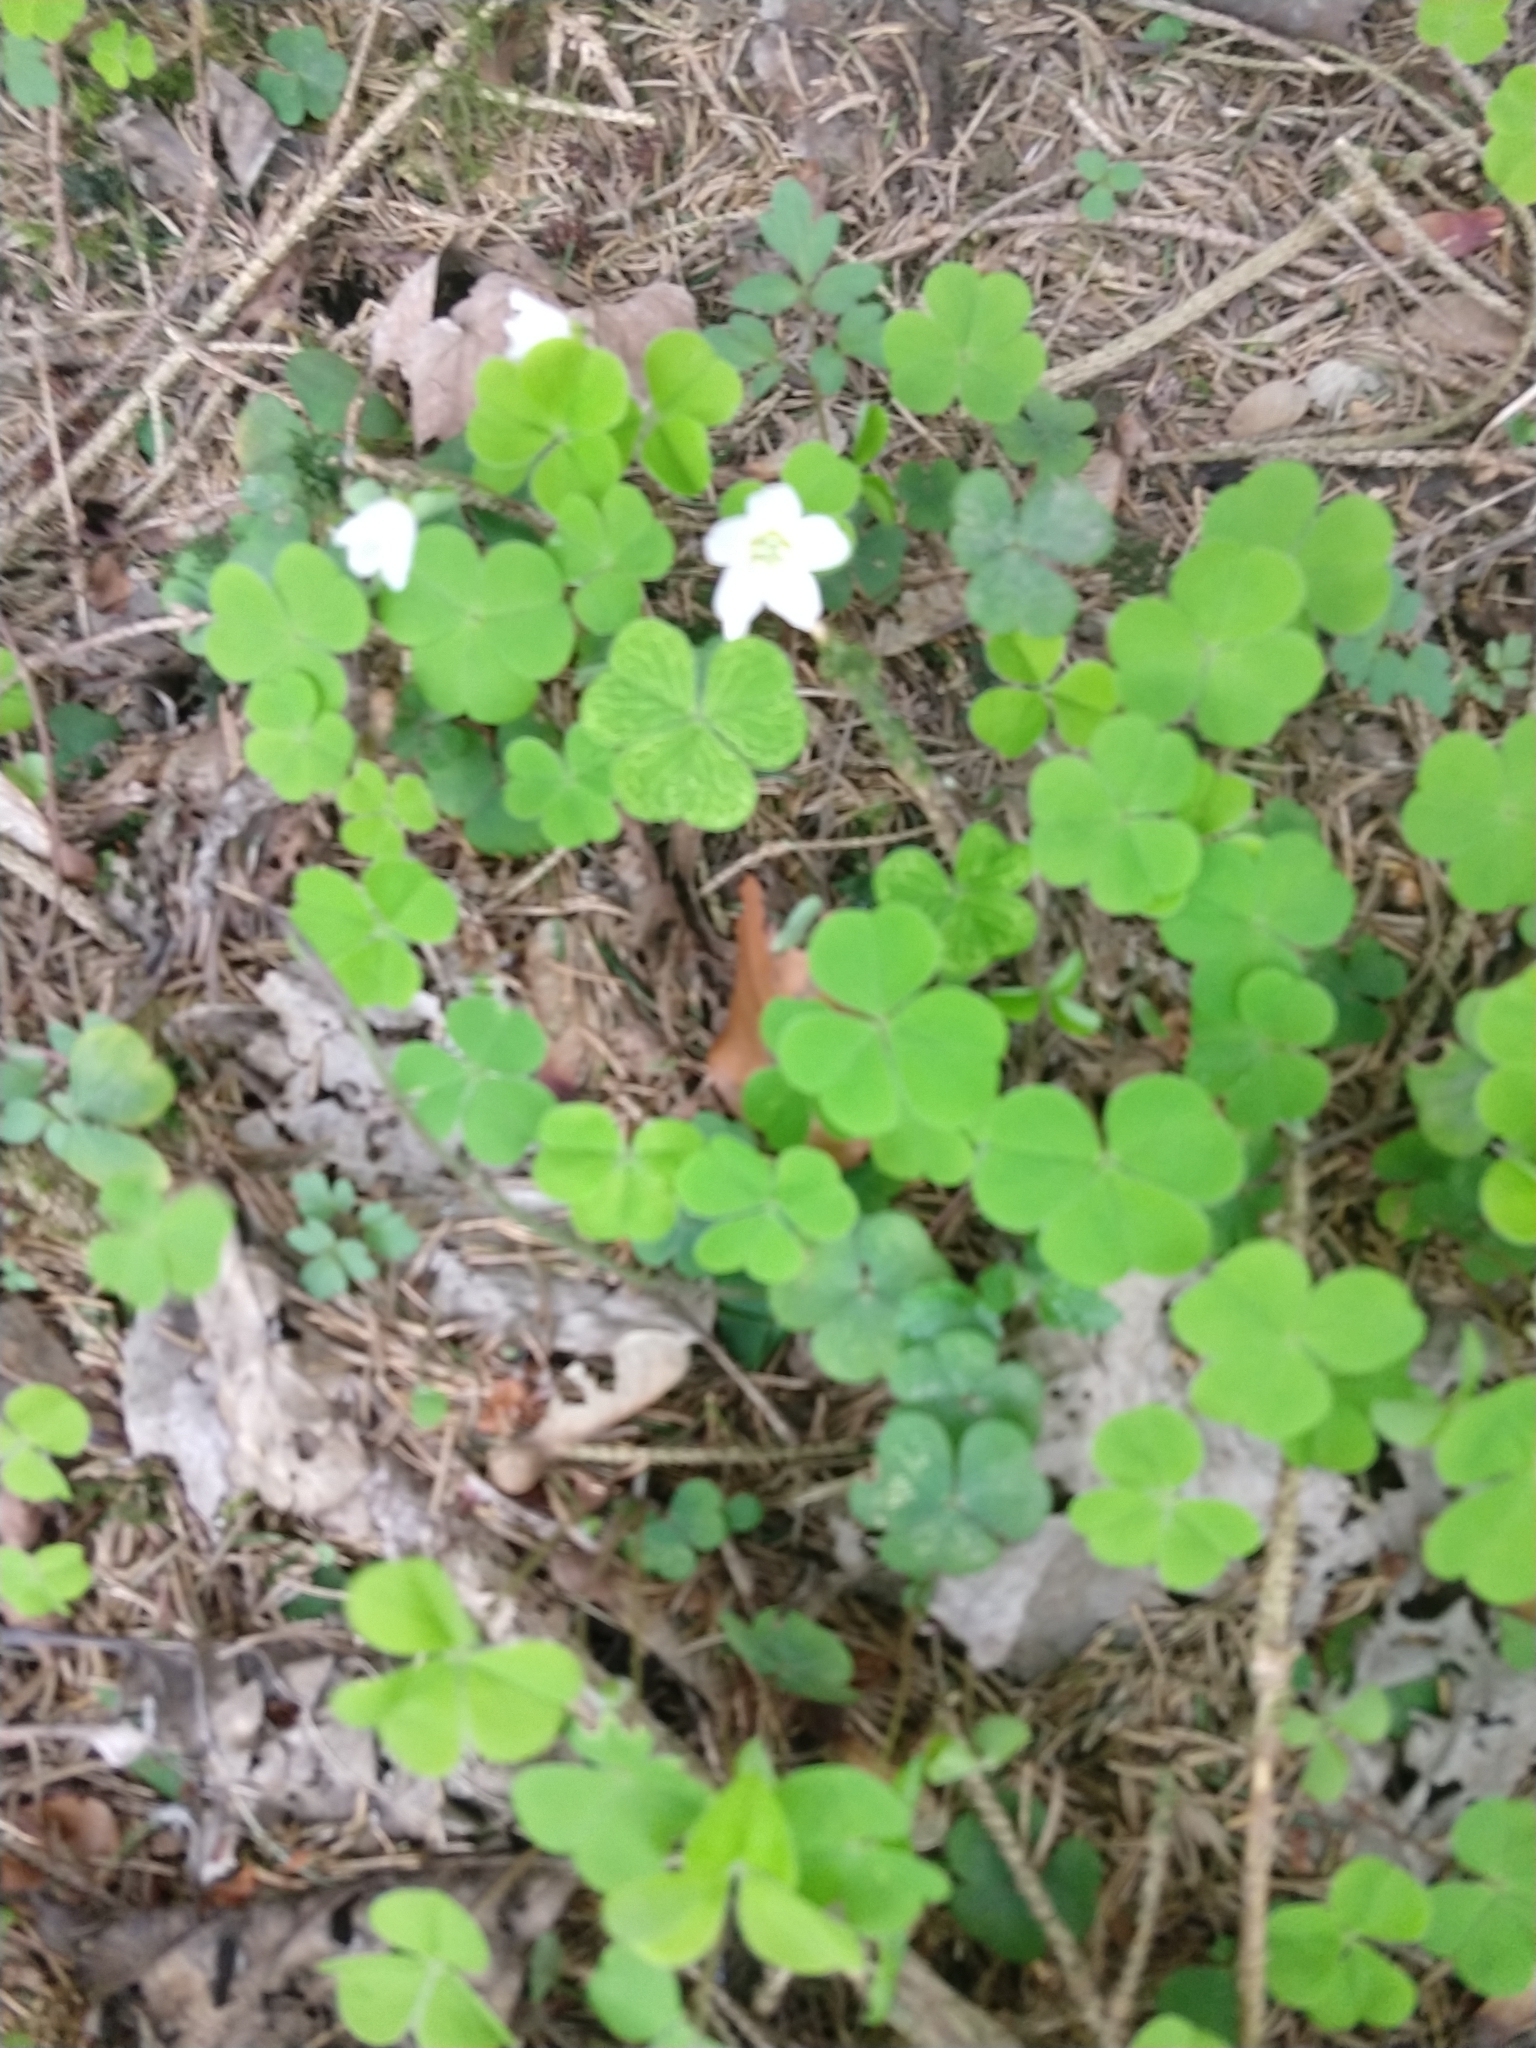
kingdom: Plantae
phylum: Tracheophyta
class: Magnoliopsida
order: Oxalidales
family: Oxalidaceae
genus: Oxalis
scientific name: Oxalis acetosella
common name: Wood-sorrel
